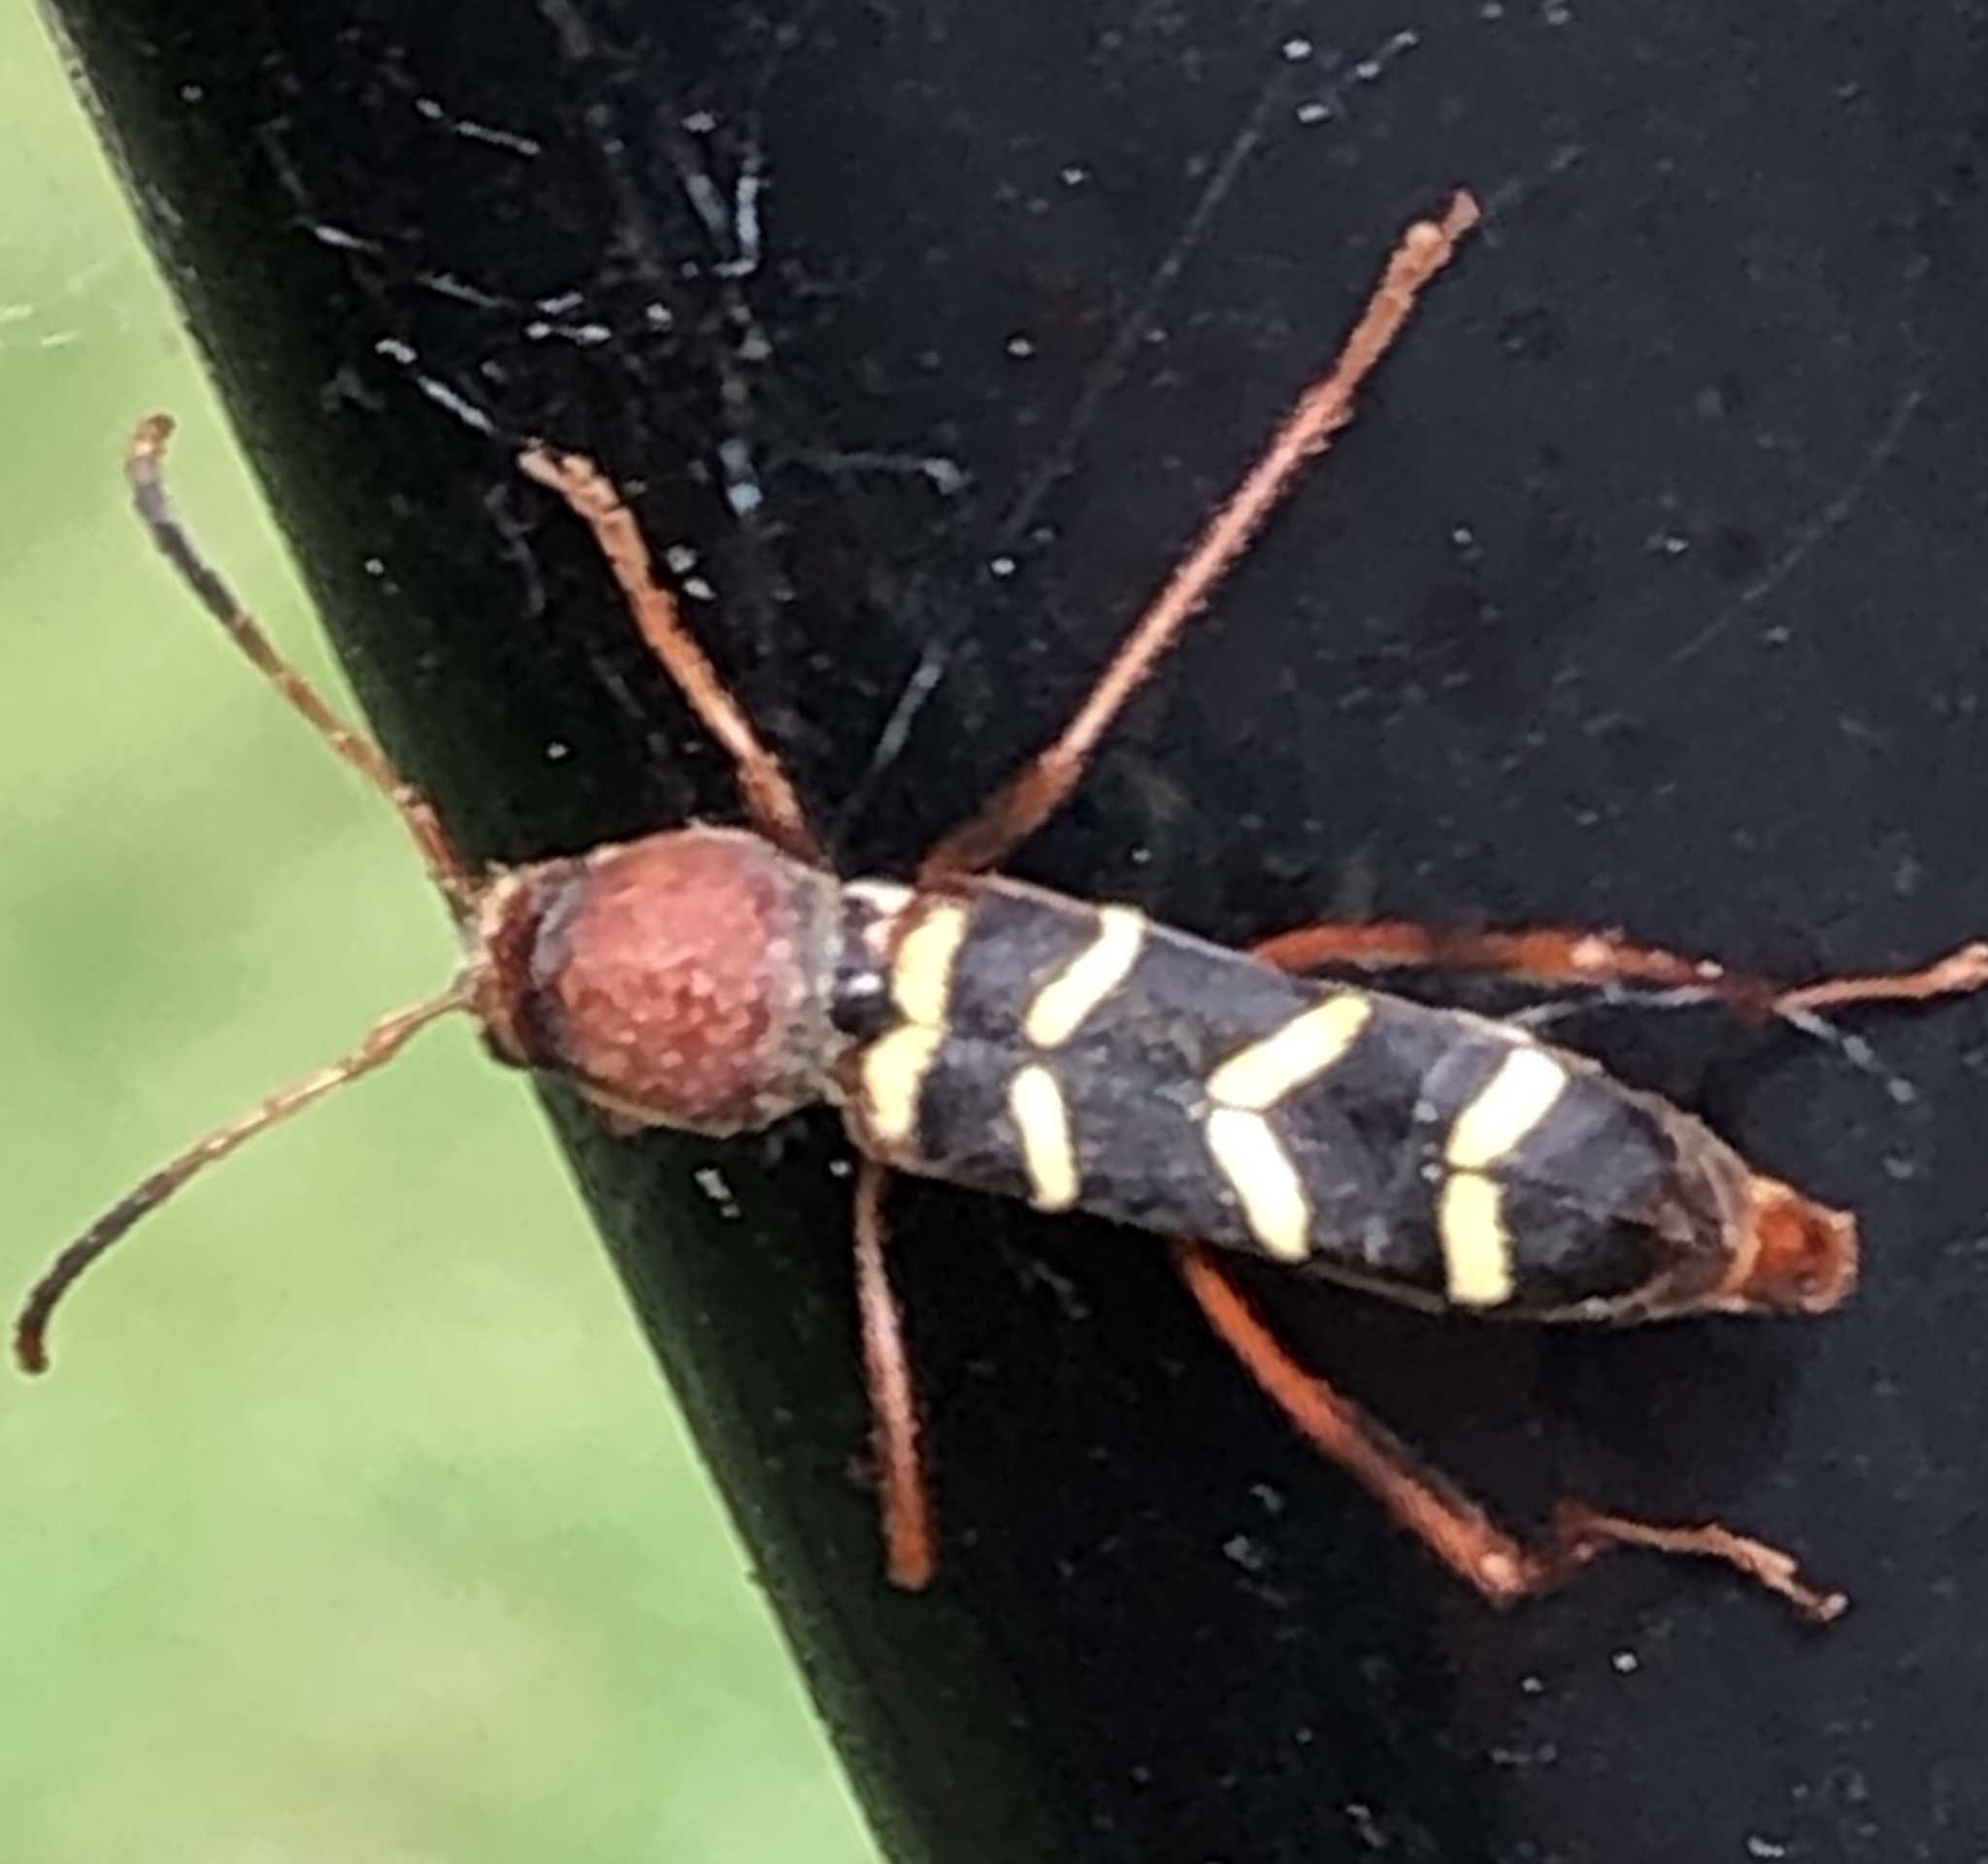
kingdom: Animalia
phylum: Arthropoda
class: Insecta
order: Coleoptera
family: Cerambycidae
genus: Neoclytus
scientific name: Neoclytus acuminatus
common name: Read-headed ash borer
